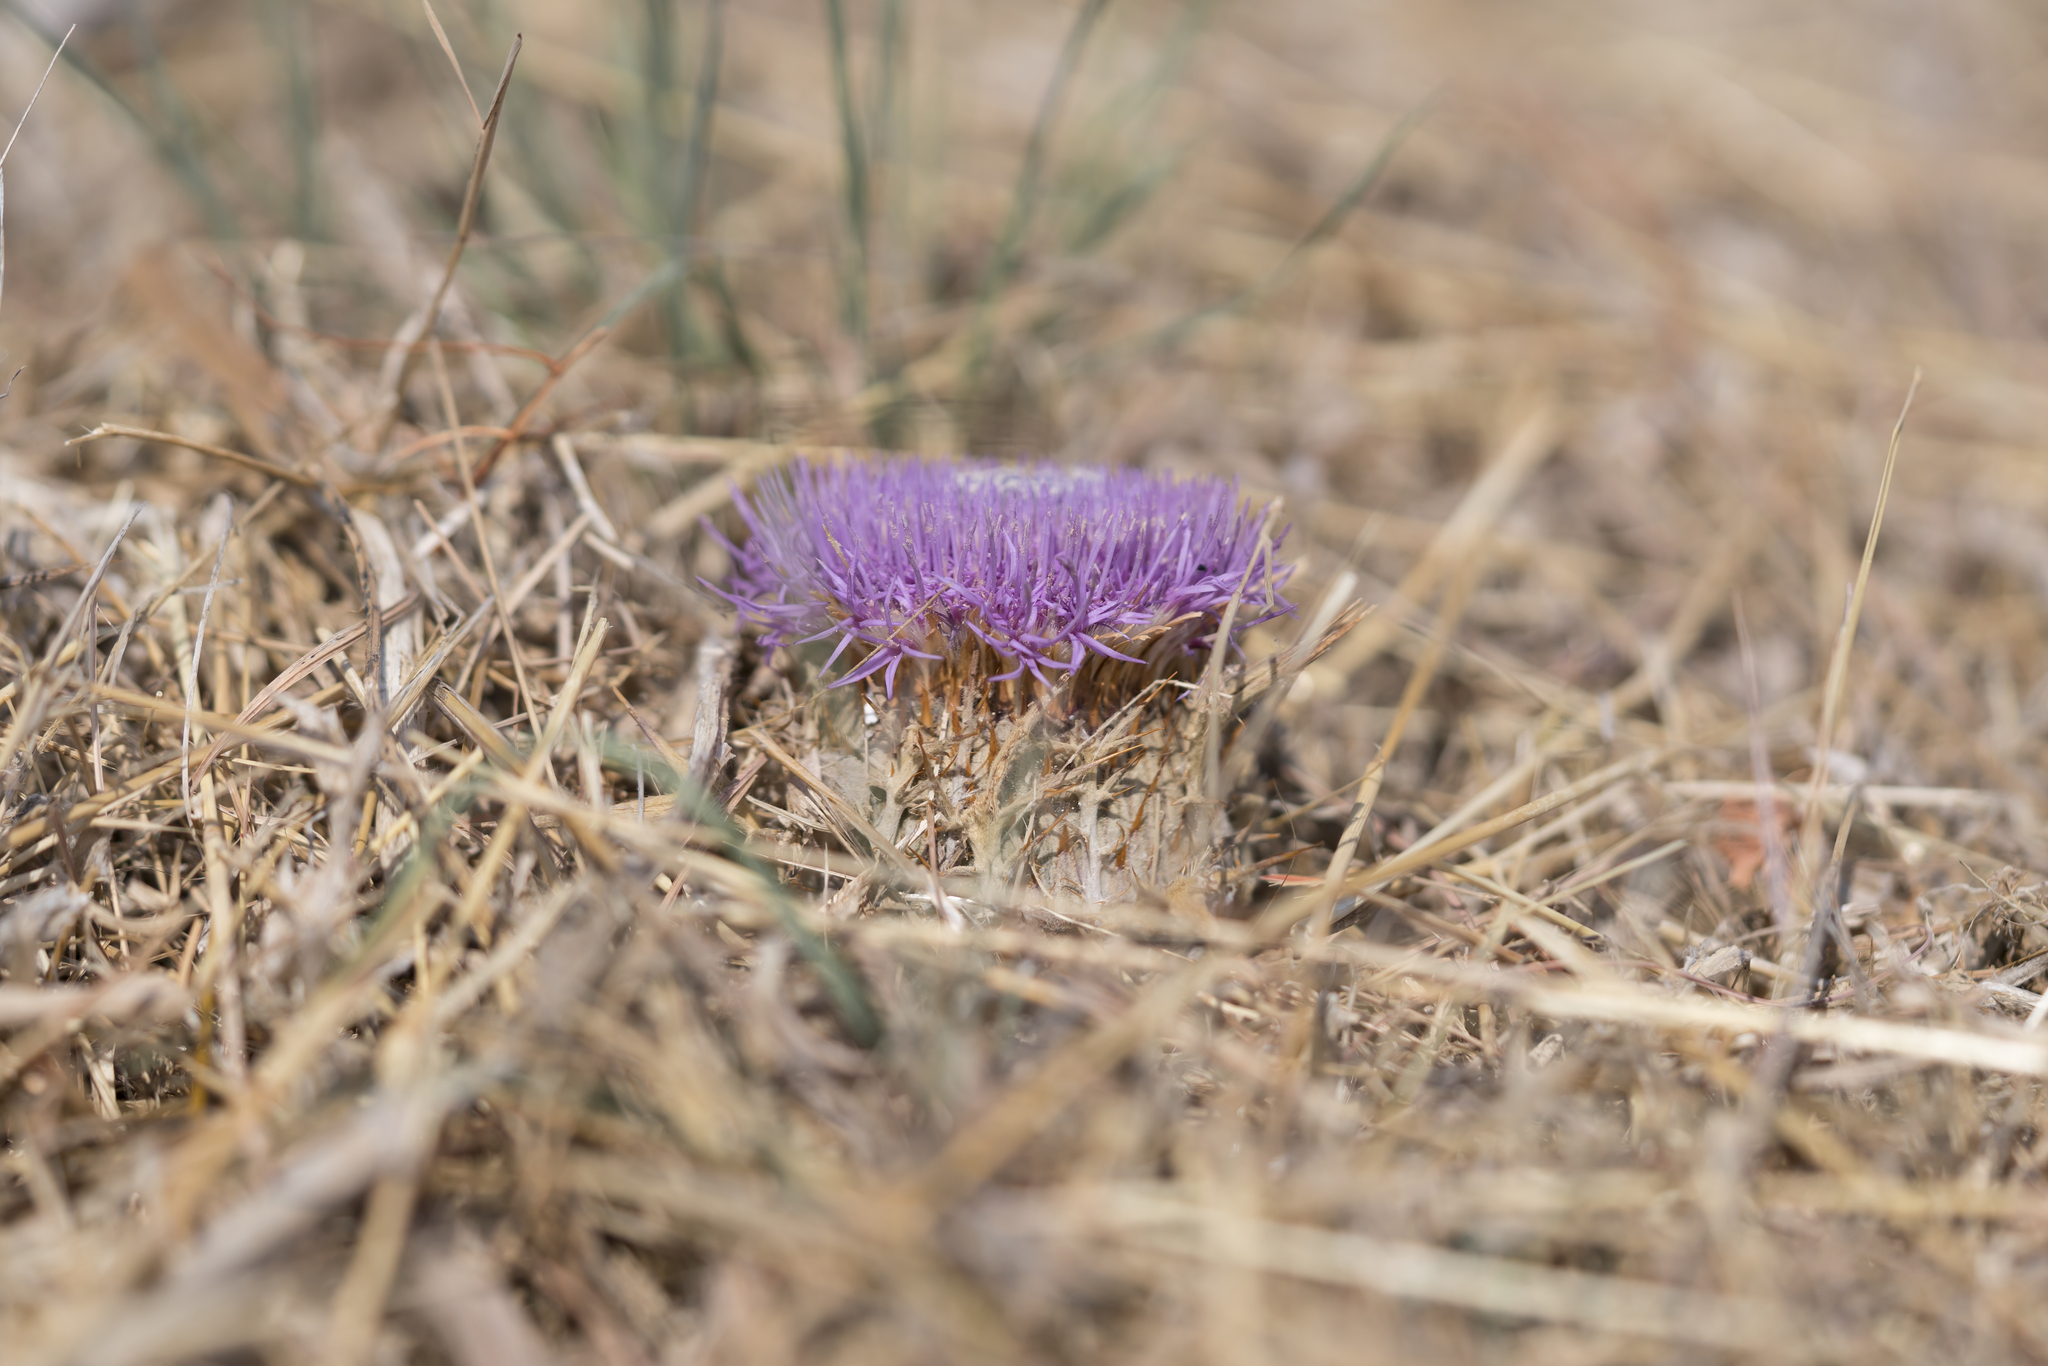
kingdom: Plantae
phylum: Tracheophyta
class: Magnoliopsida
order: Asterales
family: Asteraceae
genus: Chamaeleon
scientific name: Chamaeleon gummifer
